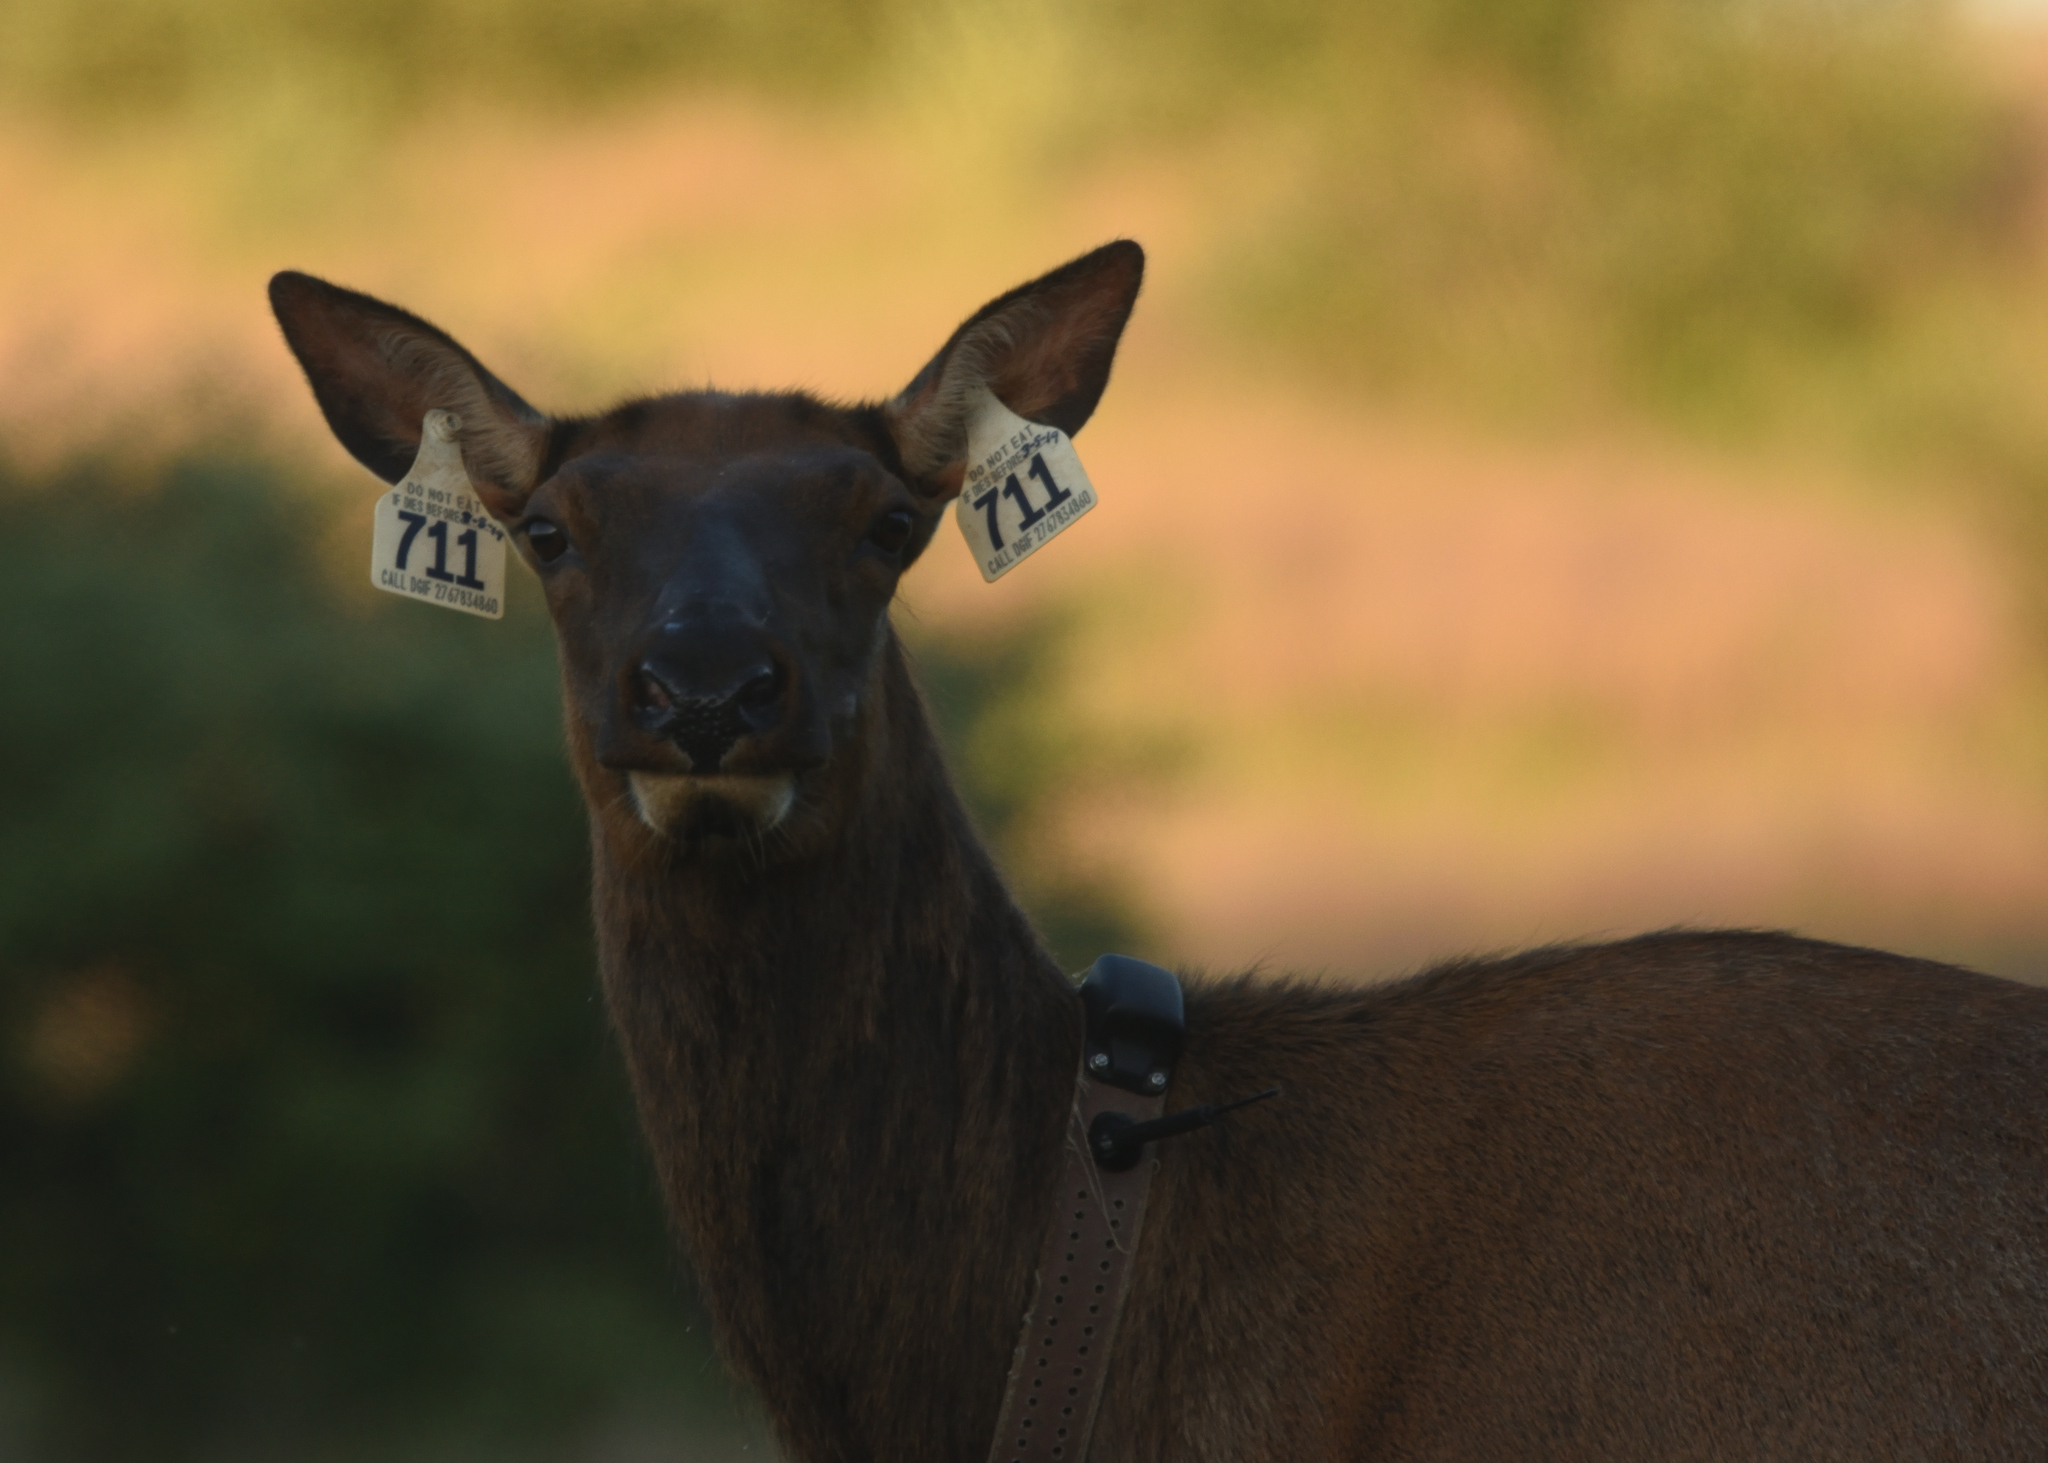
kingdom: Animalia
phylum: Chordata
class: Mammalia
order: Artiodactyla
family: Cervidae
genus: Cervus
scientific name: Cervus elaphus
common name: Red deer
